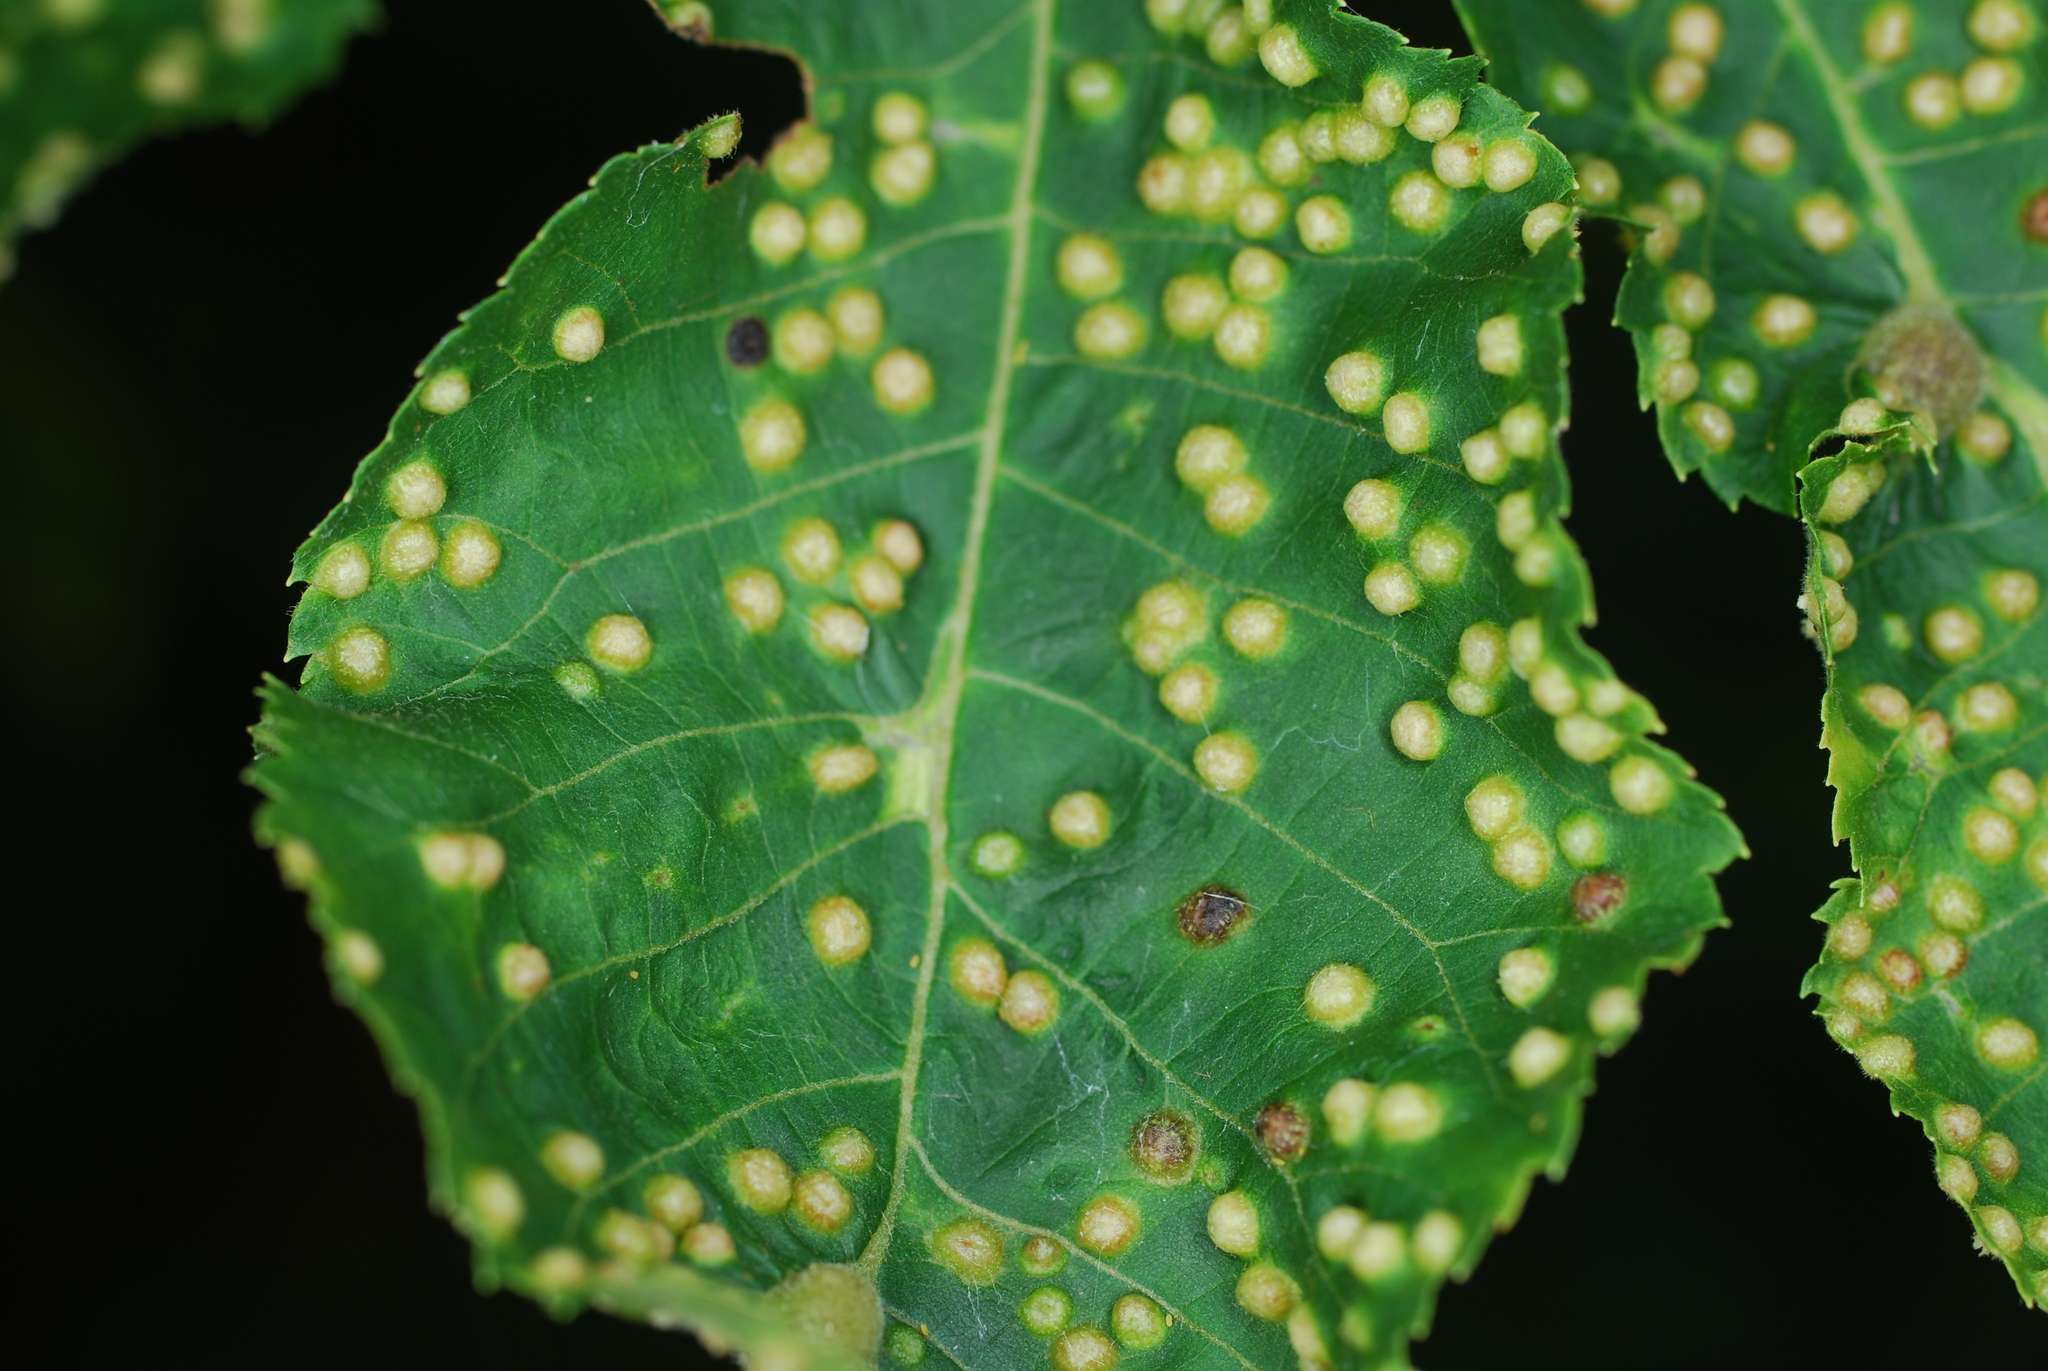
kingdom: Animalia
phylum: Arthropoda
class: Insecta
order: Hemiptera
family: Phylloxeridae
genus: Phylloxera
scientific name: Phylloxera caryae-semen
